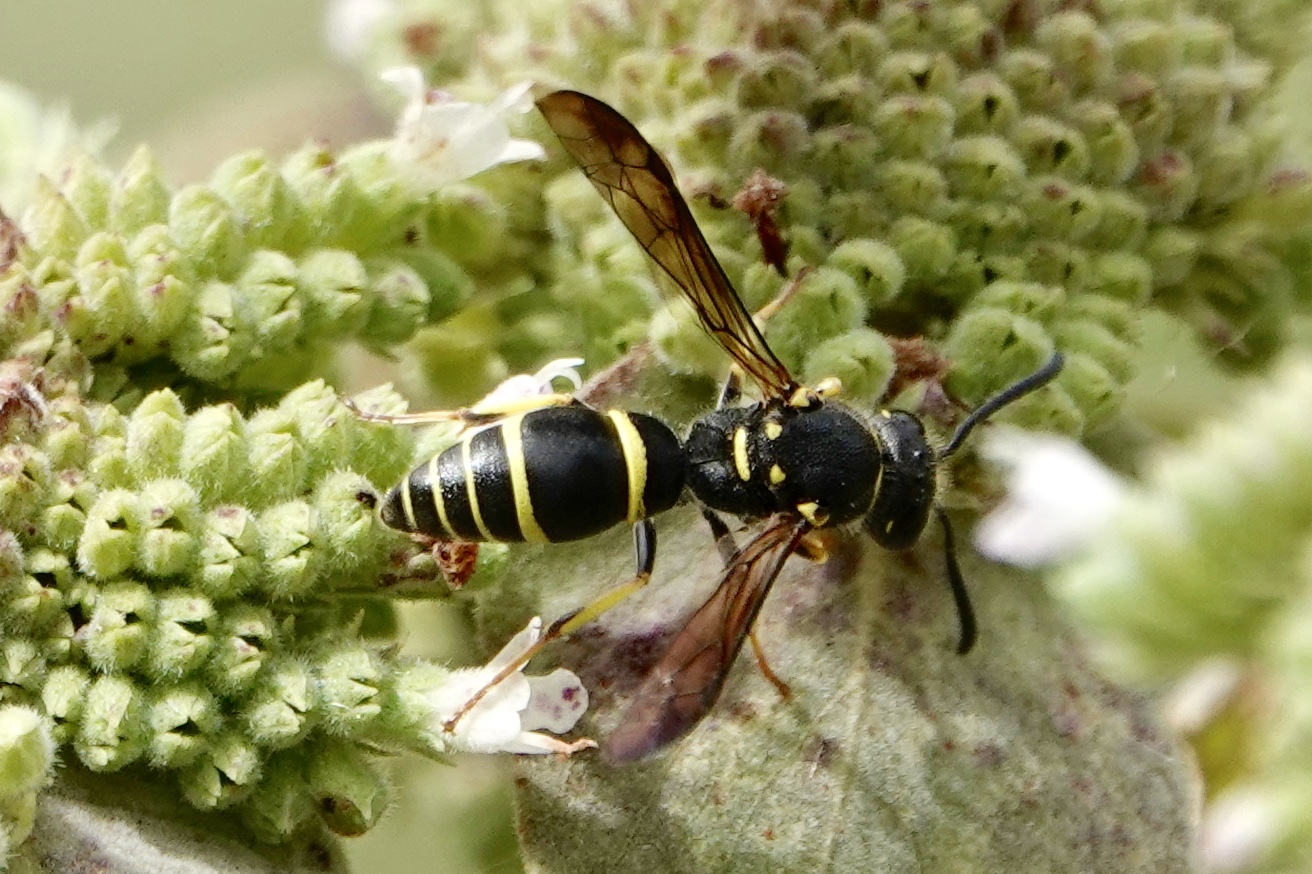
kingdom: Animalia
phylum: Arthropoda
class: Insecta
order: Hymenoptera
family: Vespidae
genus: Ancistrocerus
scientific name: Ancistrocerus adiabatus
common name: Bramble mason wasp
